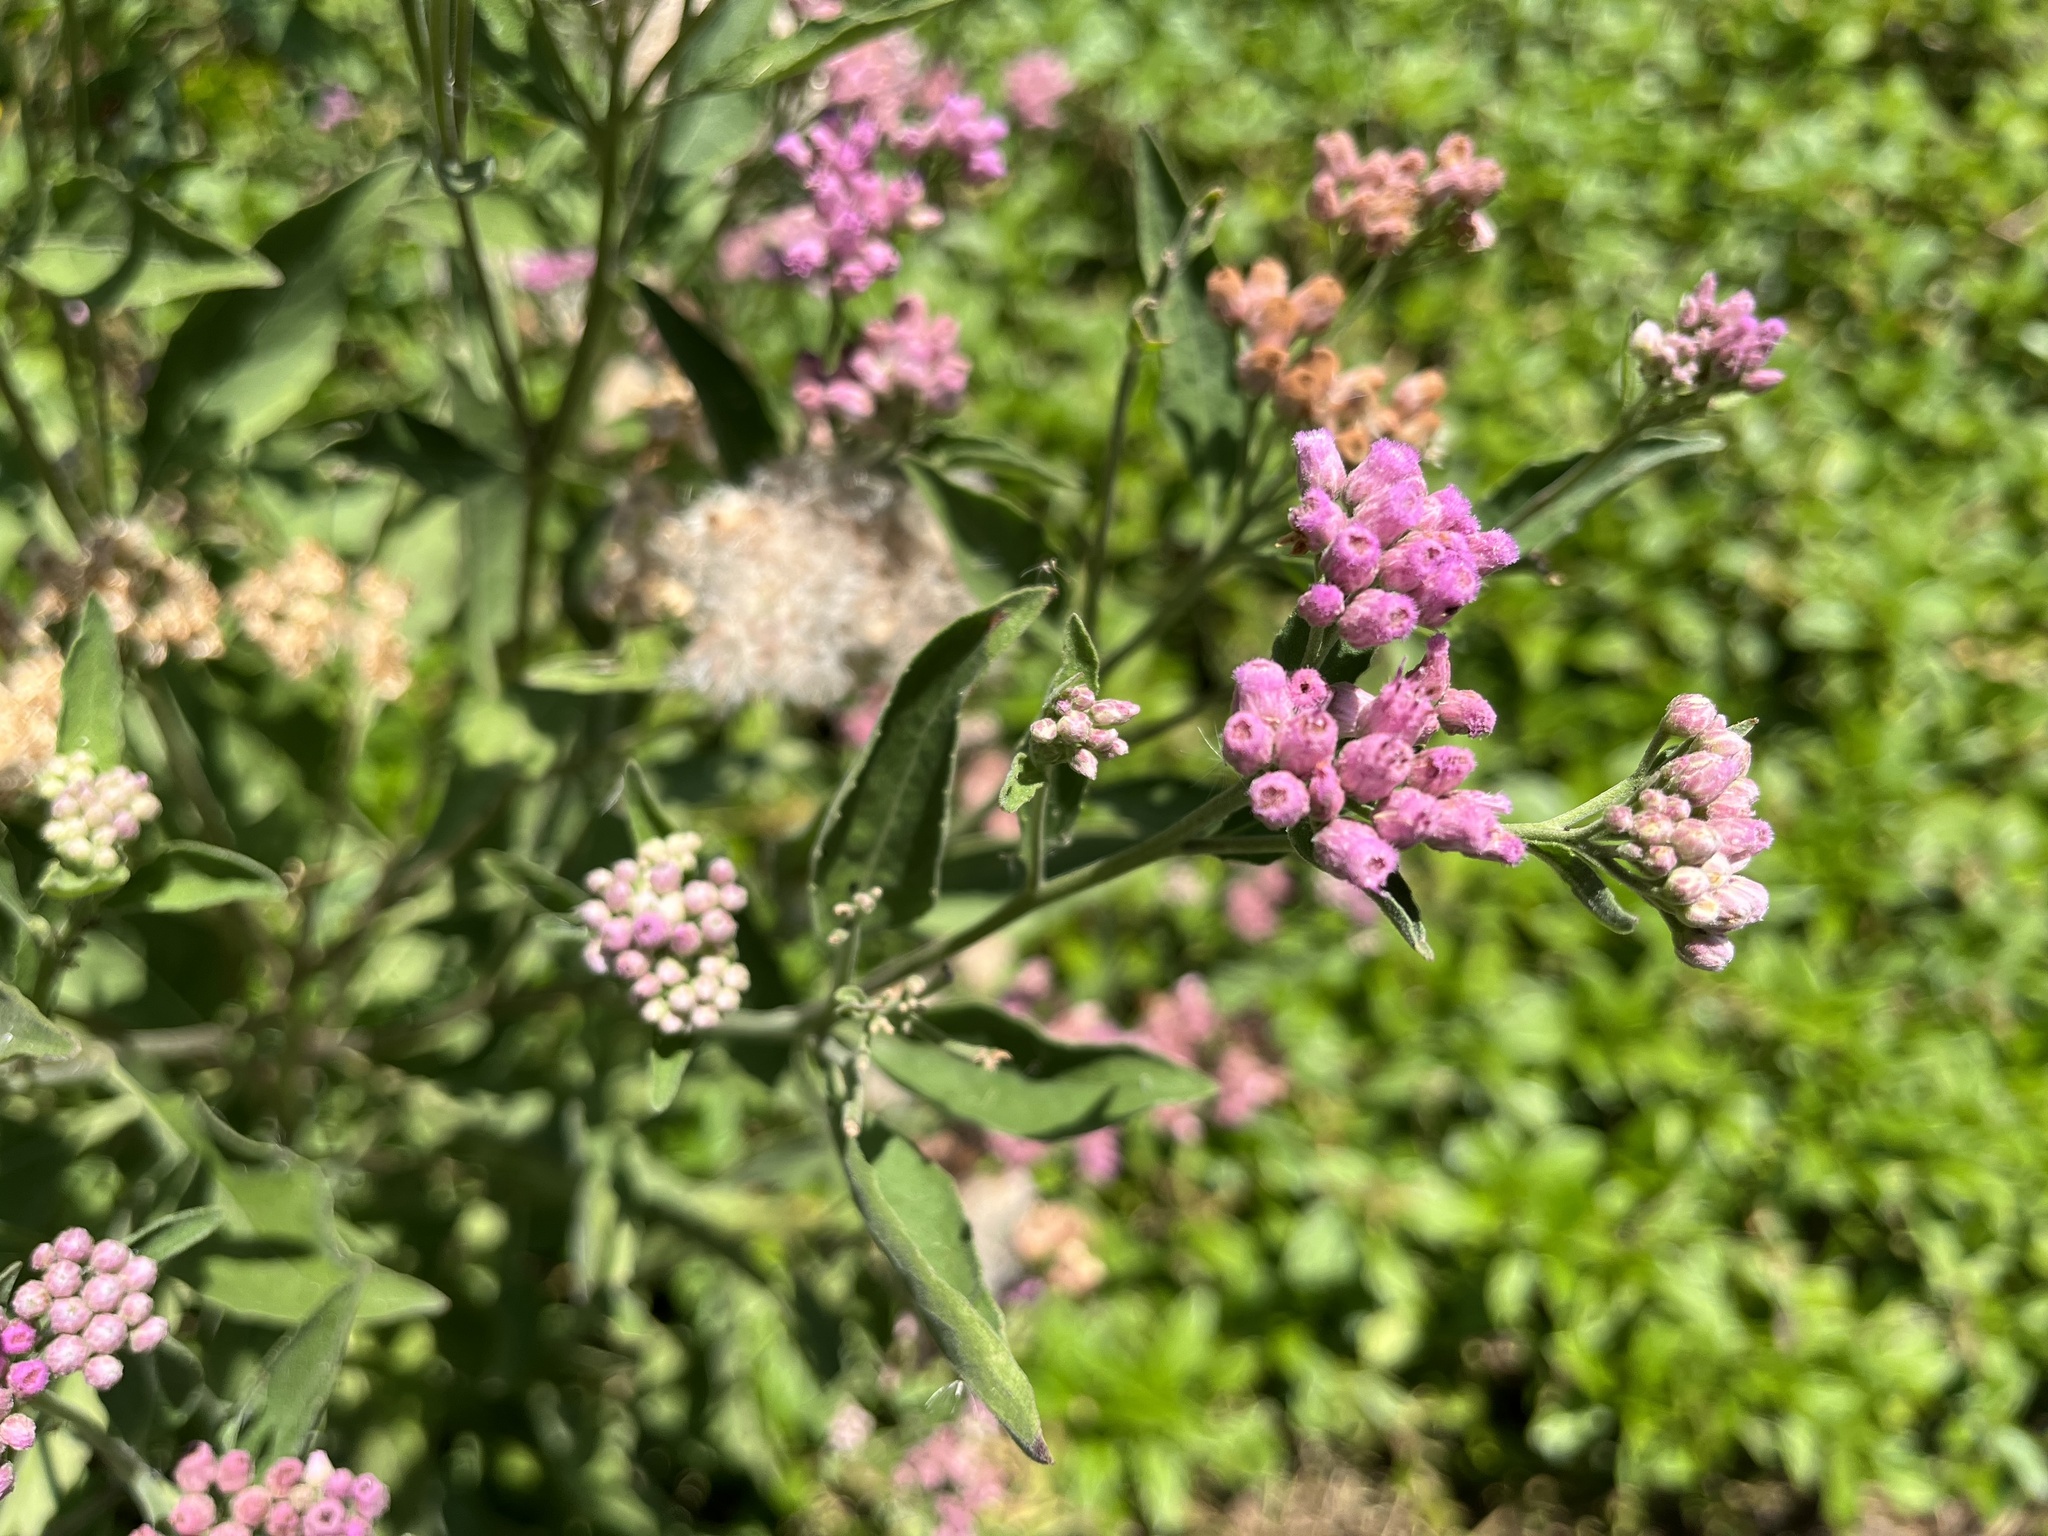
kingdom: Plantae
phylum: Tracheophyta
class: Magnoliopsida
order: Asterales
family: Asteraceae
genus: Pluchea
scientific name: Pluchea odorata
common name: Saltmarsh fleabane
